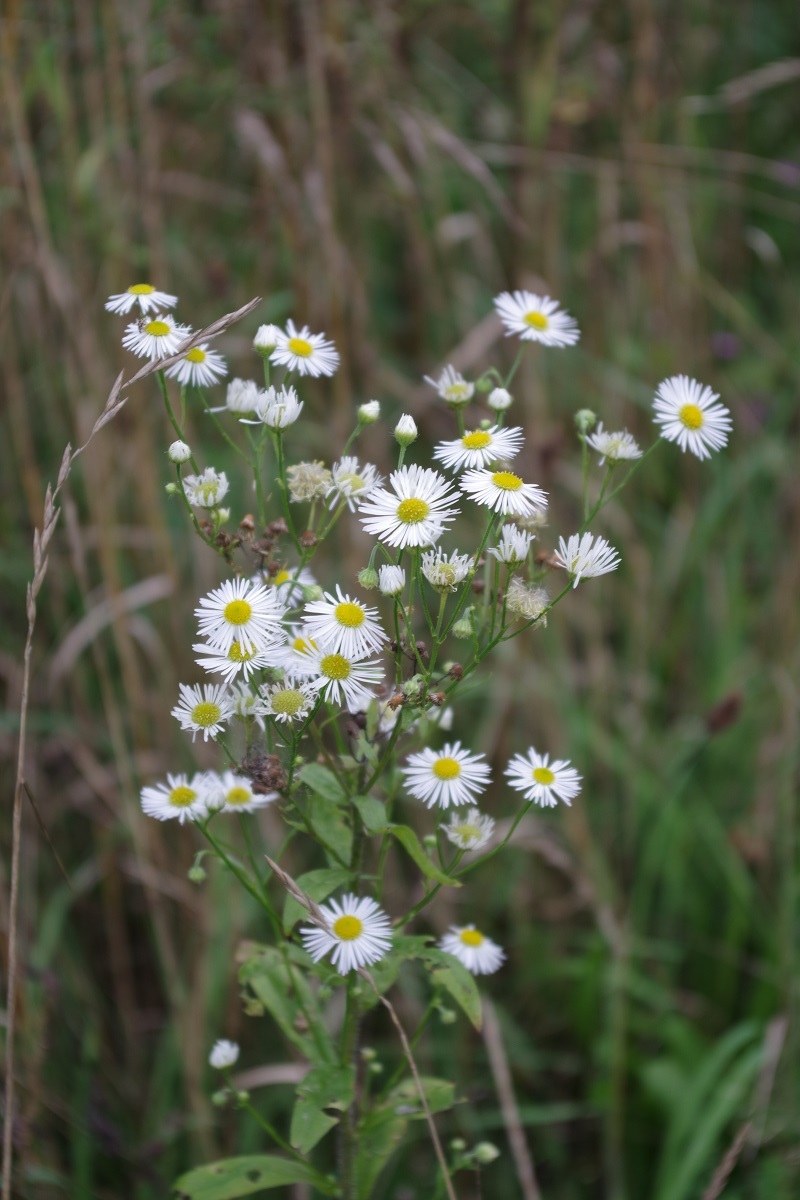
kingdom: Plantae
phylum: Tracheophyta
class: Magnoliopsida
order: Asterales
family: Asteraceae
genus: Erigeron
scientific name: Erigeron annuus
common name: Tall fleabane
